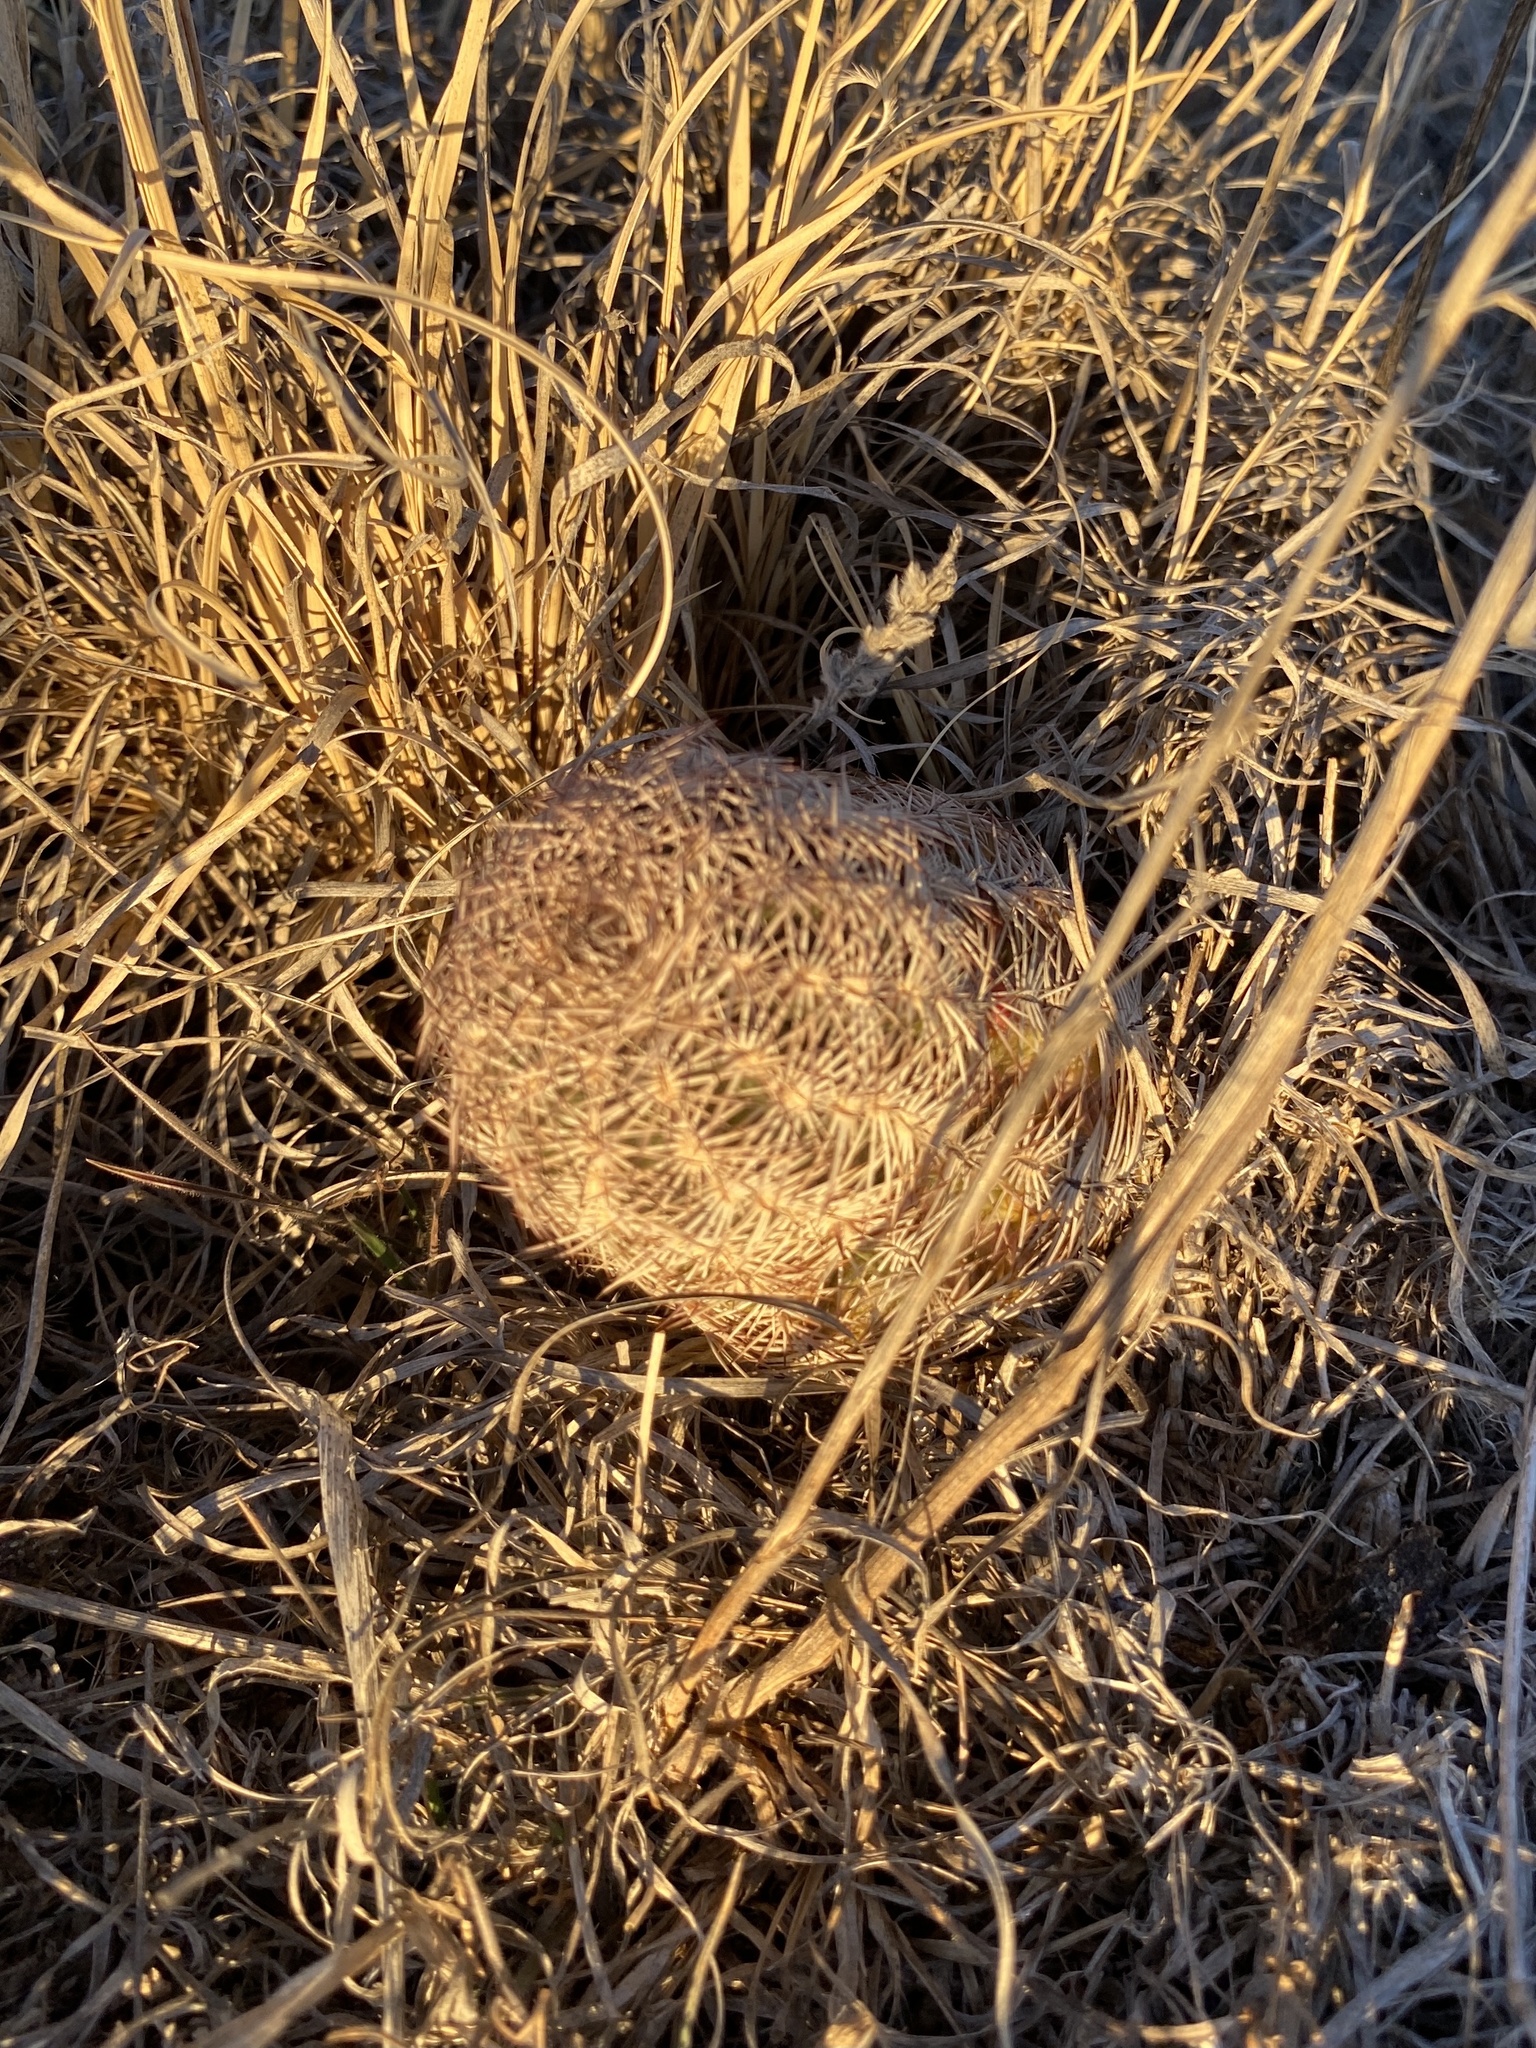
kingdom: Plantae
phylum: Tracheophyta
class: Magnoliopsida
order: Caryophyllales
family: Cactaceae
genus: Echinocereus
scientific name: Echinocereus reichenbachii
